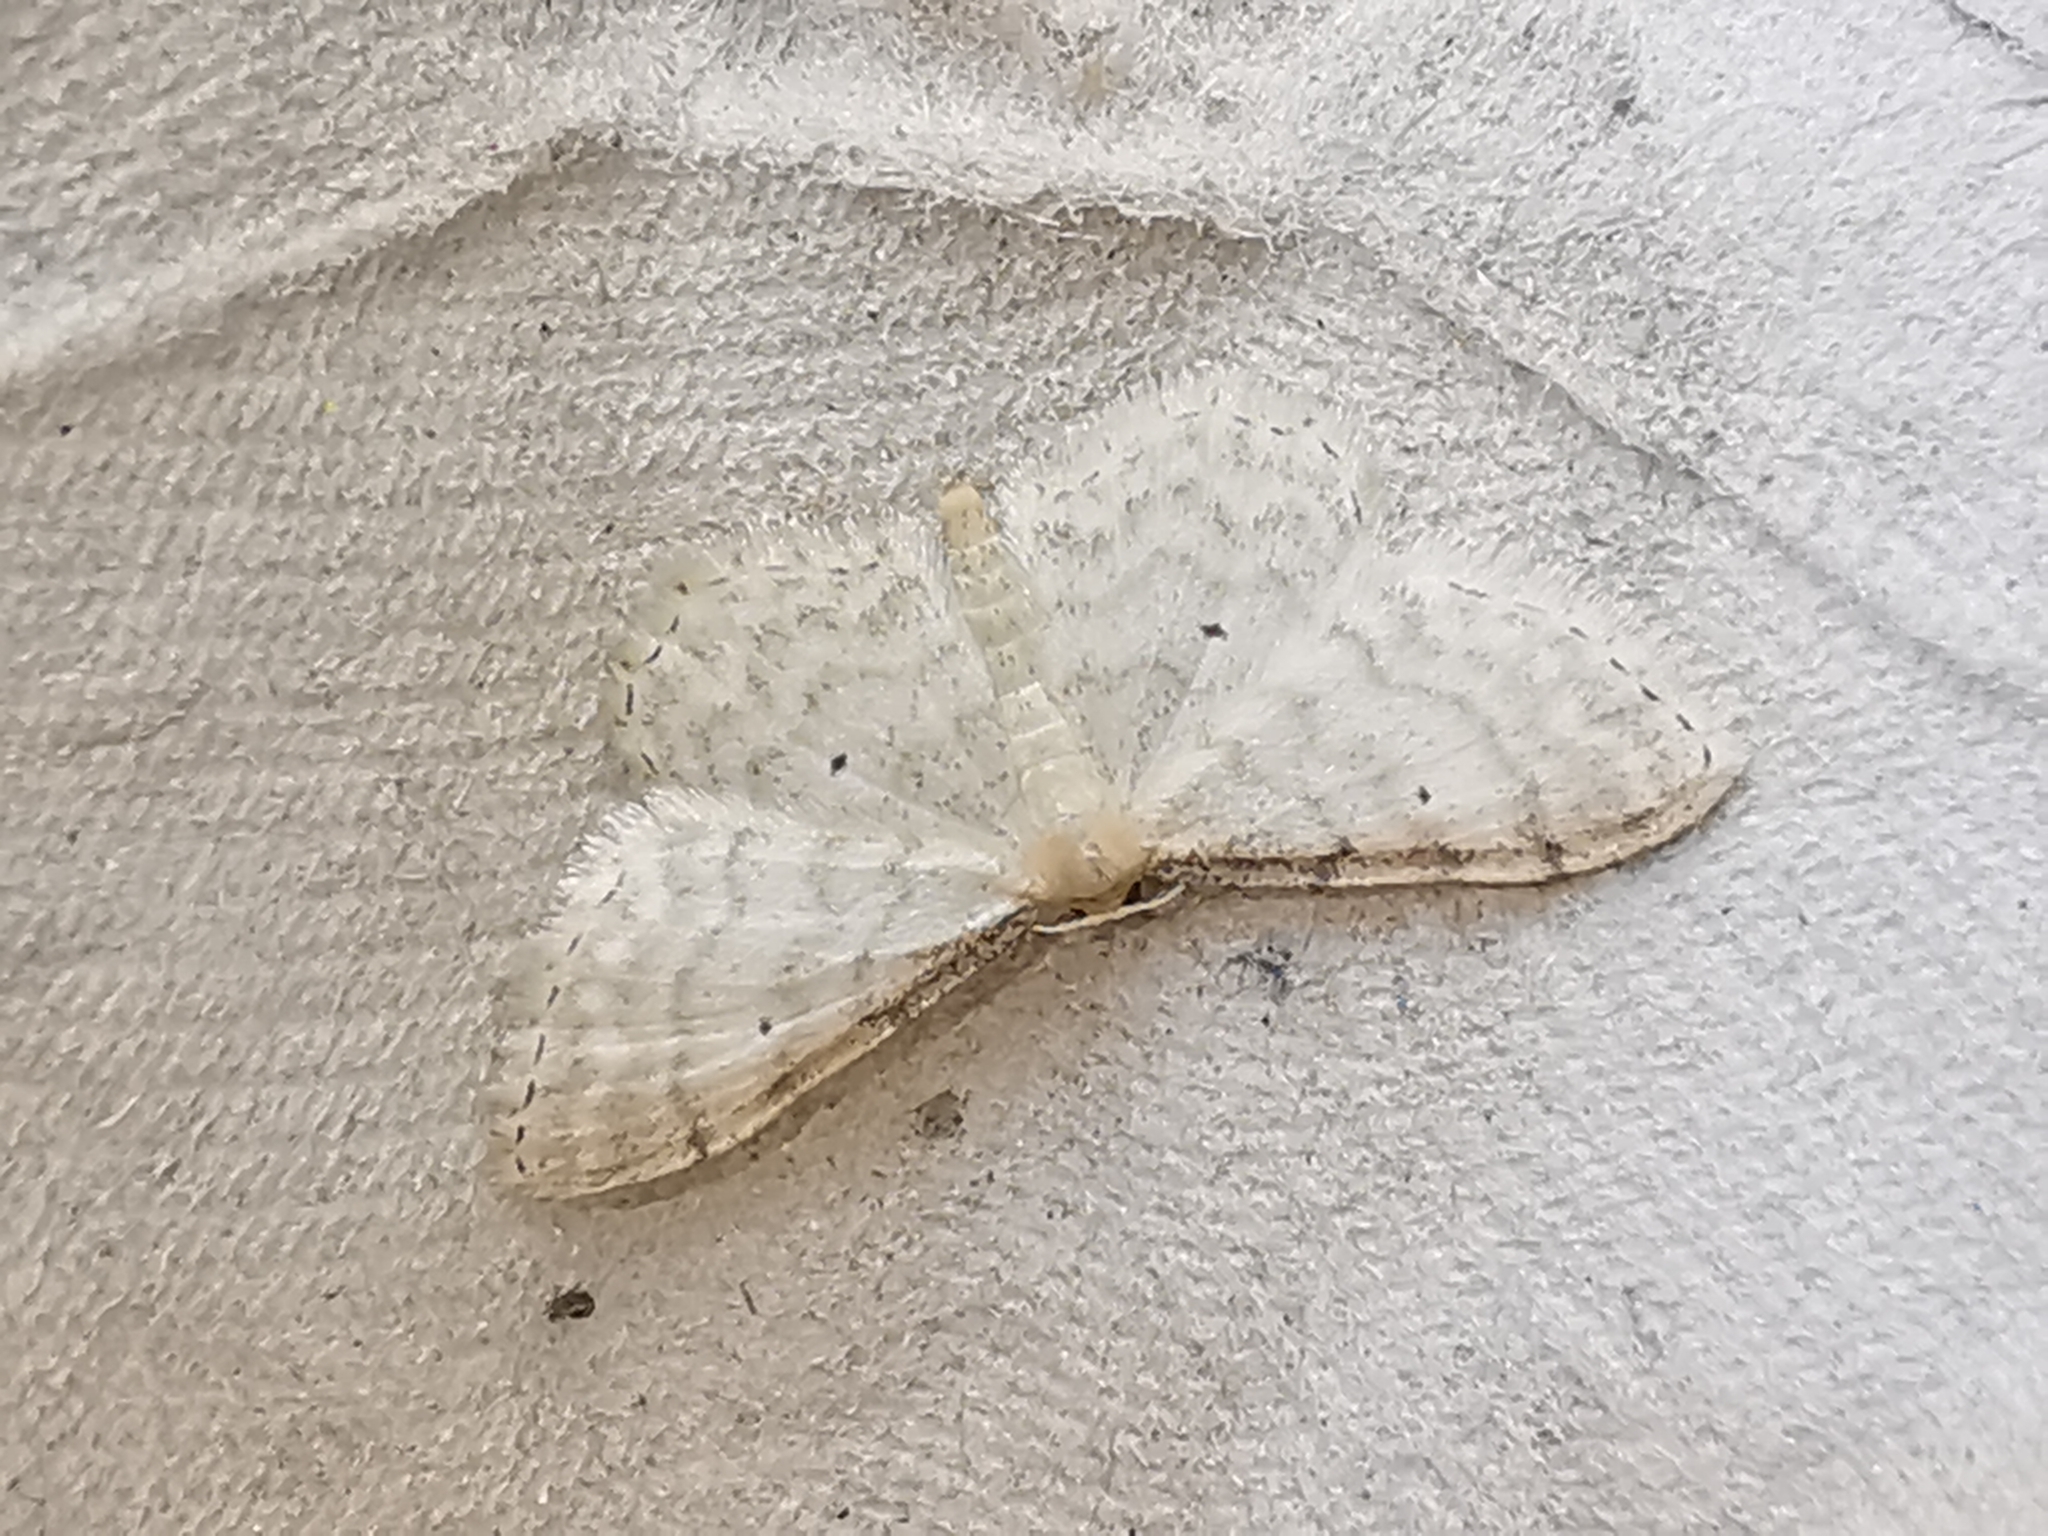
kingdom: Animalia
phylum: Arthropoda
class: Insecta
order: Lepidoptera
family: Geometridae
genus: Idaea
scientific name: Idaea fuscovenosa
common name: Dwarf cream wave
